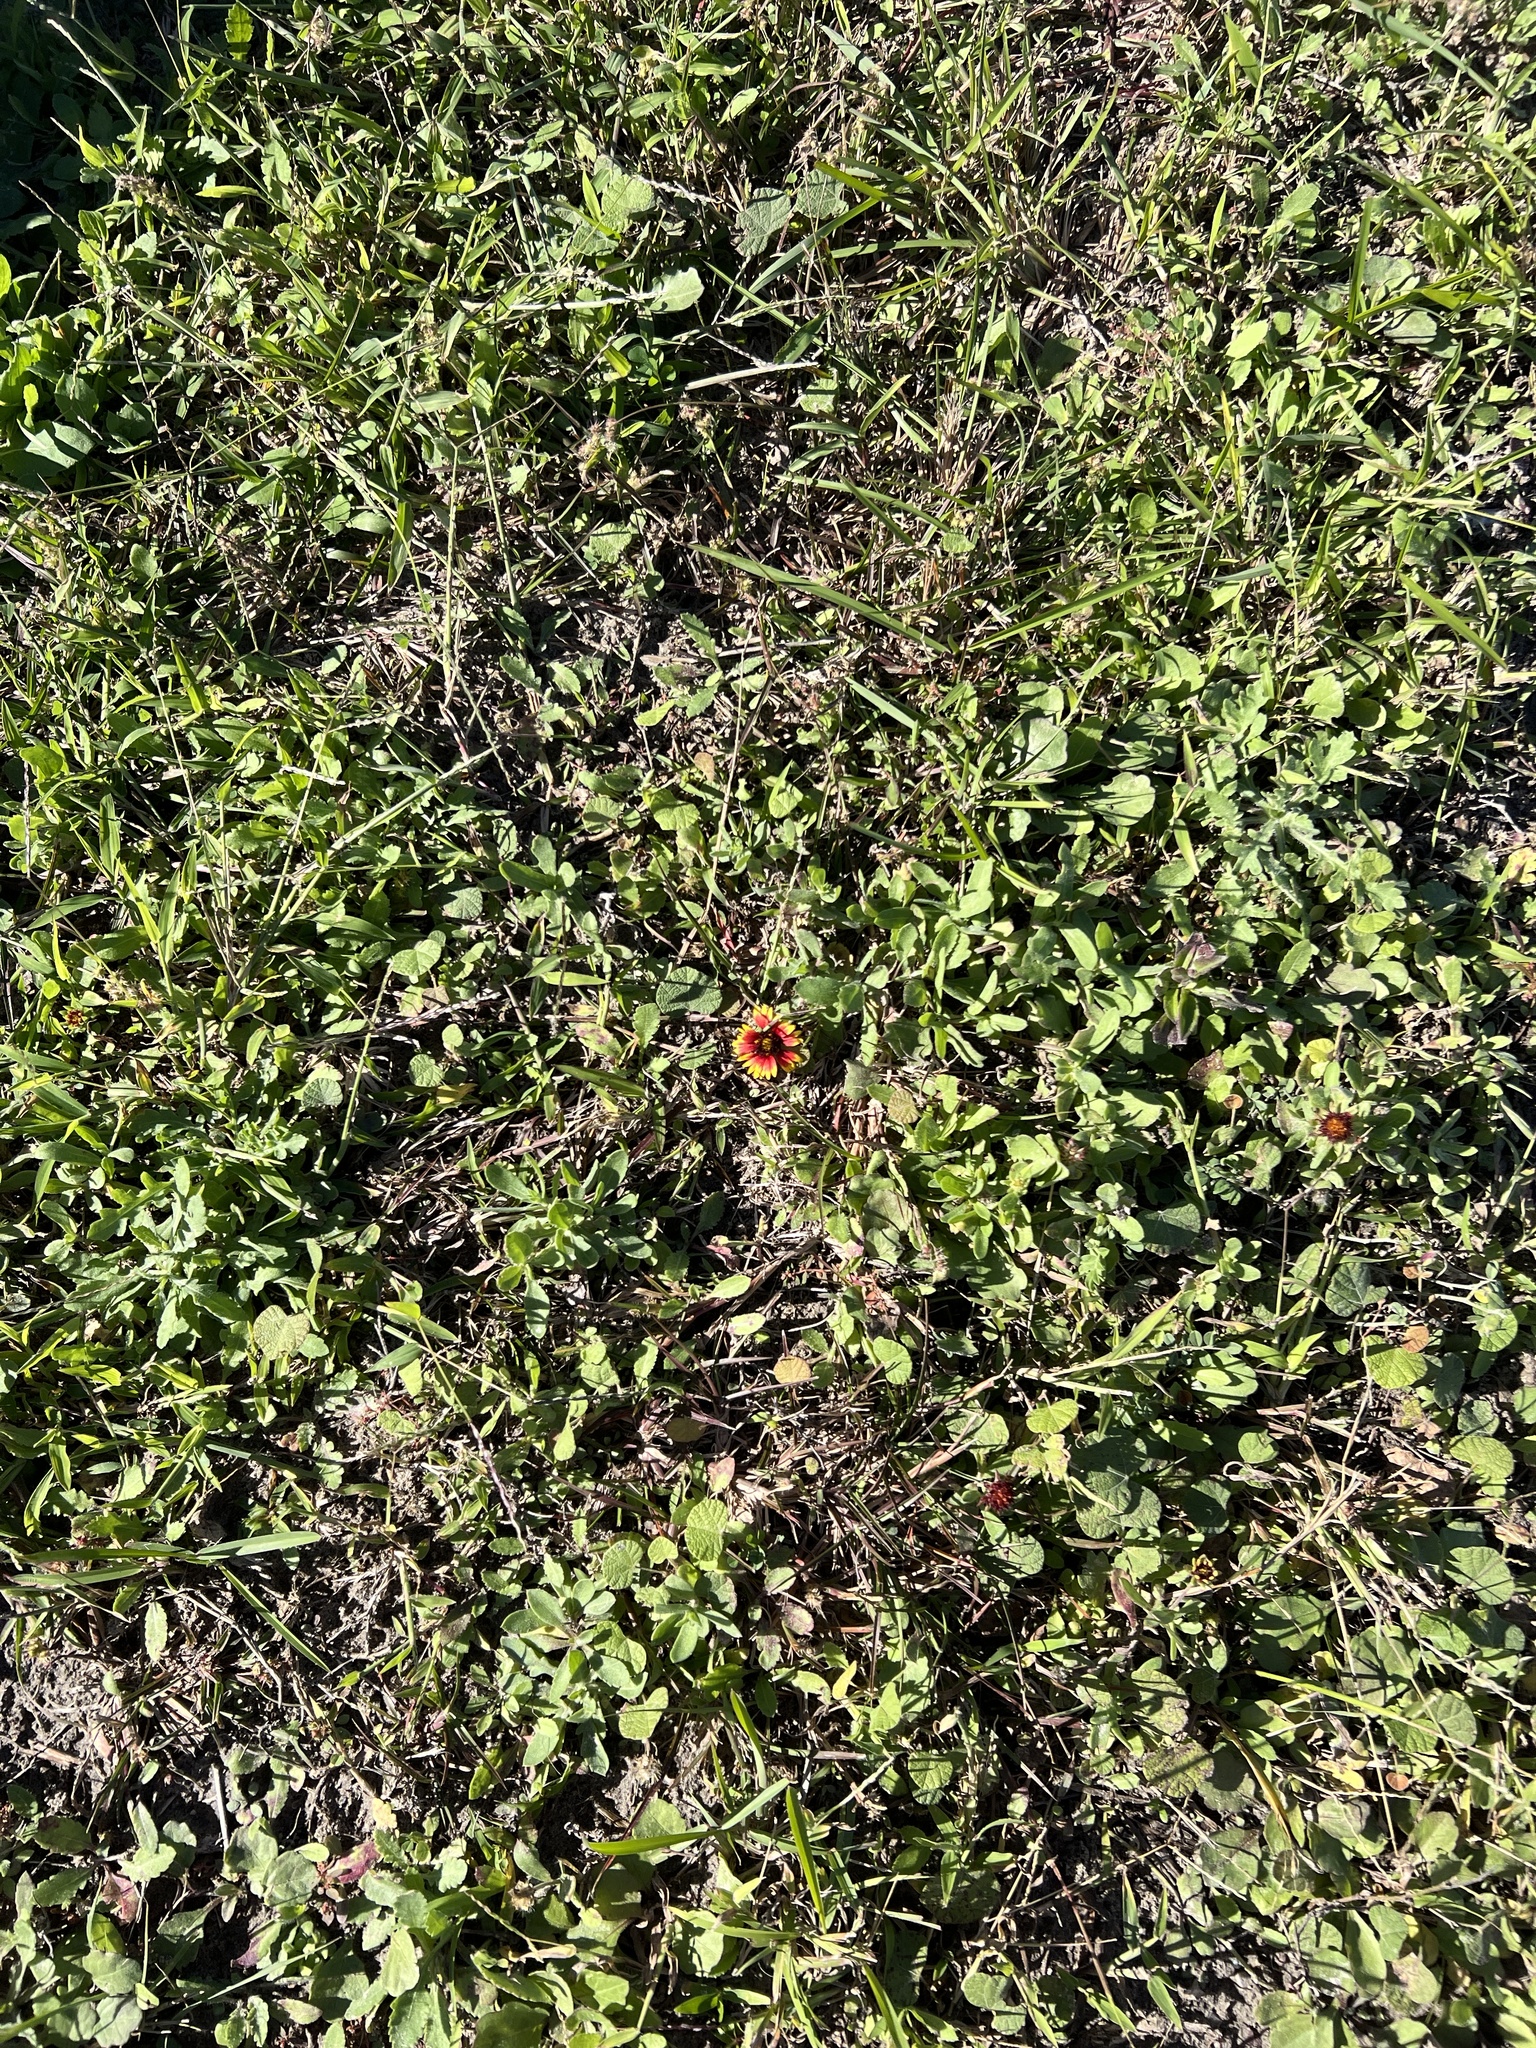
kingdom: Plantae
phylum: Tracheophyta
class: Magnoliopsida
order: Asterales
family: Asteraceae
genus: Gaillardia
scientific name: Gaillardia pulchella
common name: Firewheel
